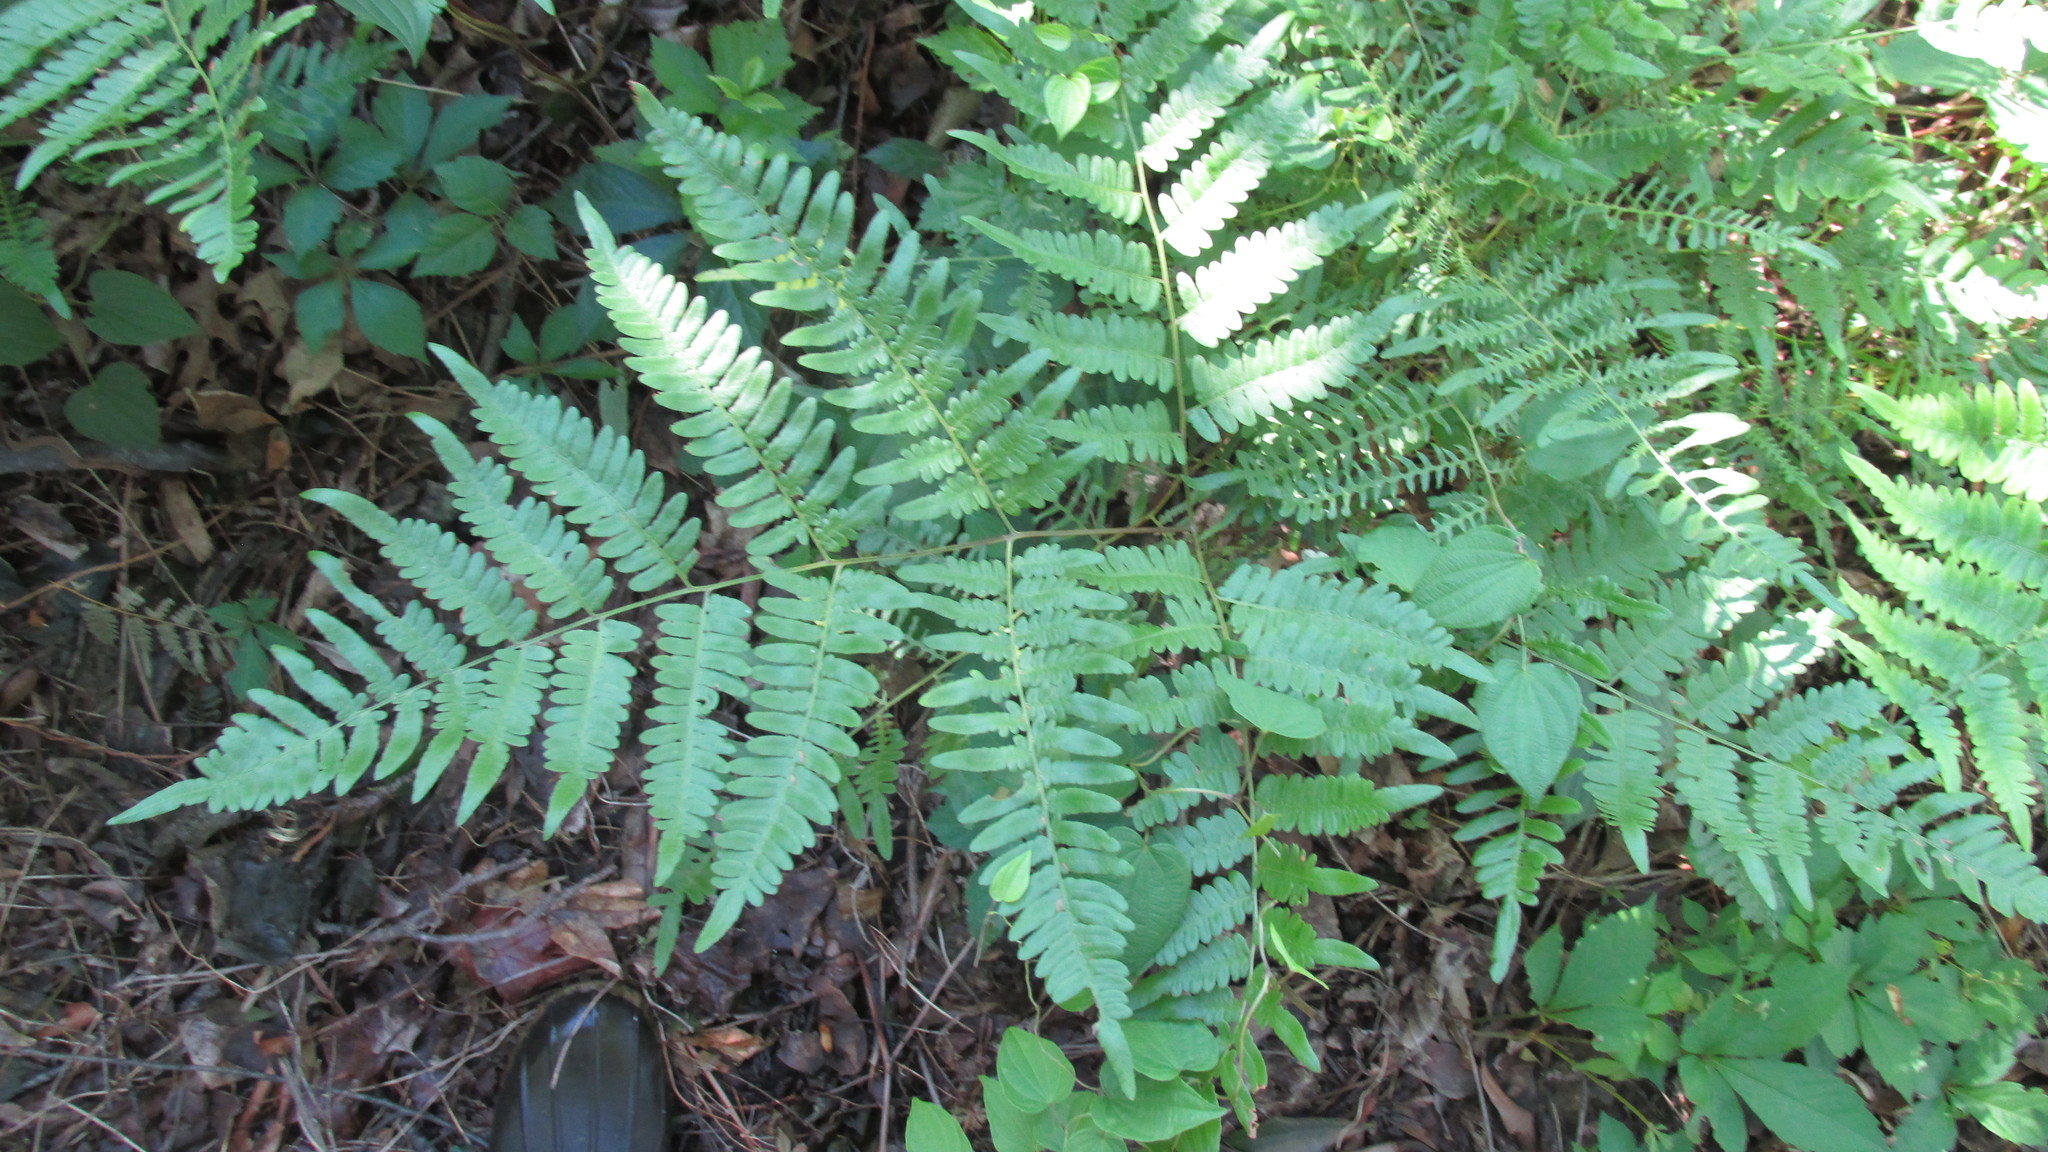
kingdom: Plantae
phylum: Tracheophyta
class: Polypodiopsida
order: Polypodiales
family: Dennstaedtiaceae
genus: Pteridium
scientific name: Pteridium aquilinum
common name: Bracken
